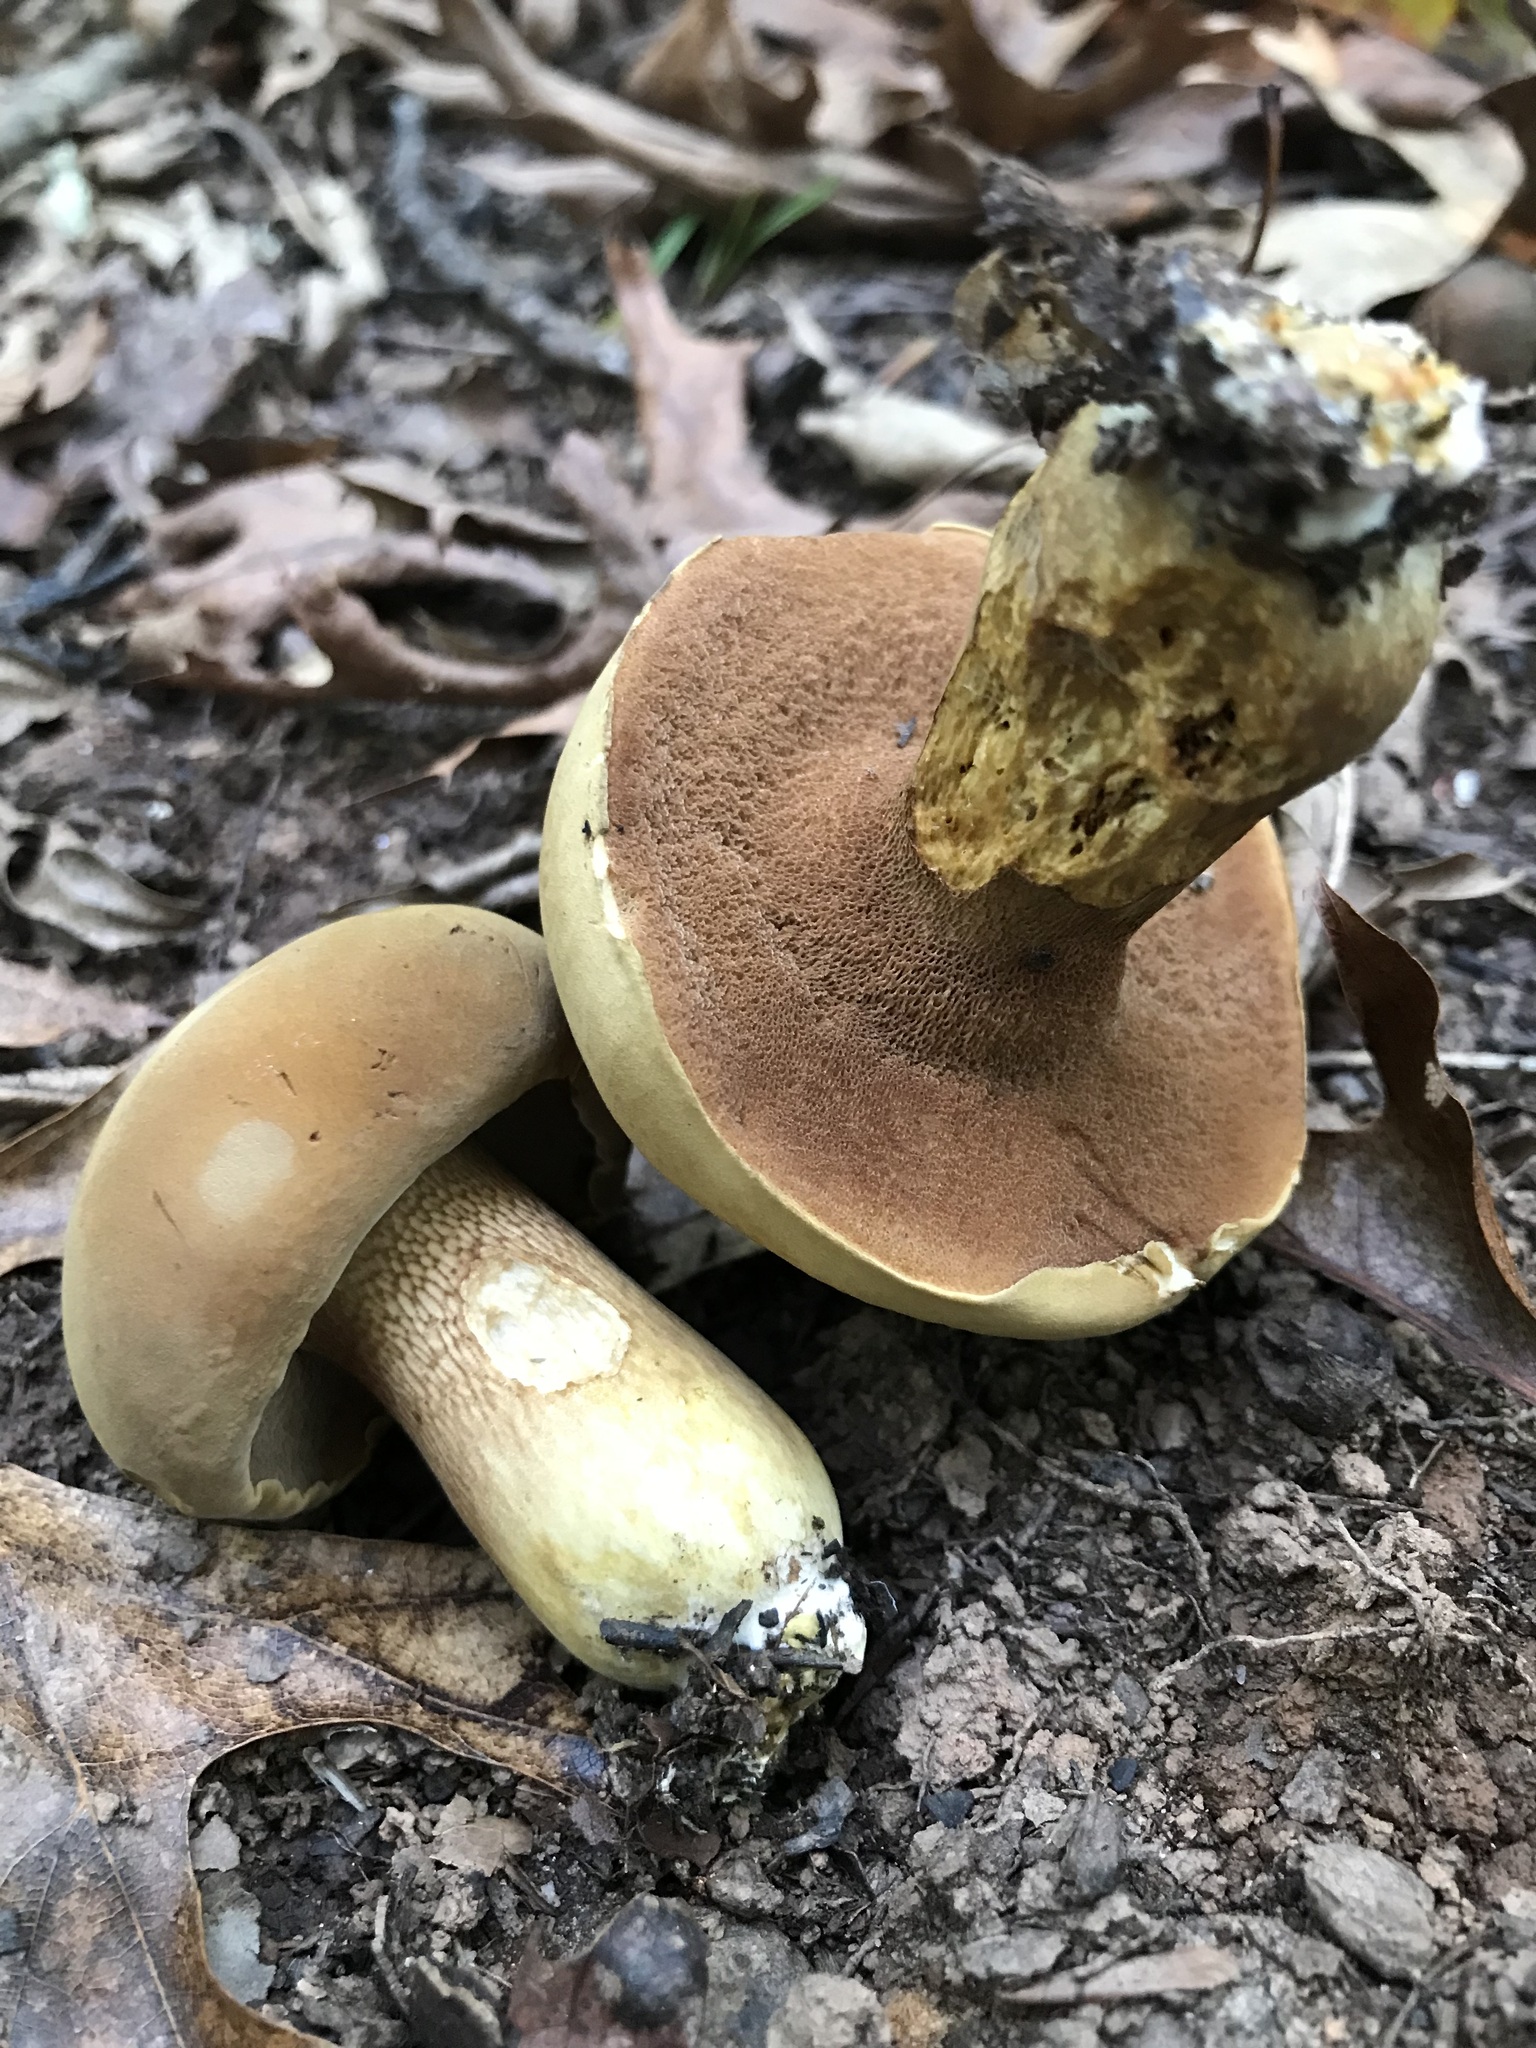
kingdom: Fungi
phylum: Basidiomycota
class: Agaricomycetes
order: Boletales
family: Boletaceae
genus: Boletus
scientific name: Boletus durhamensis
